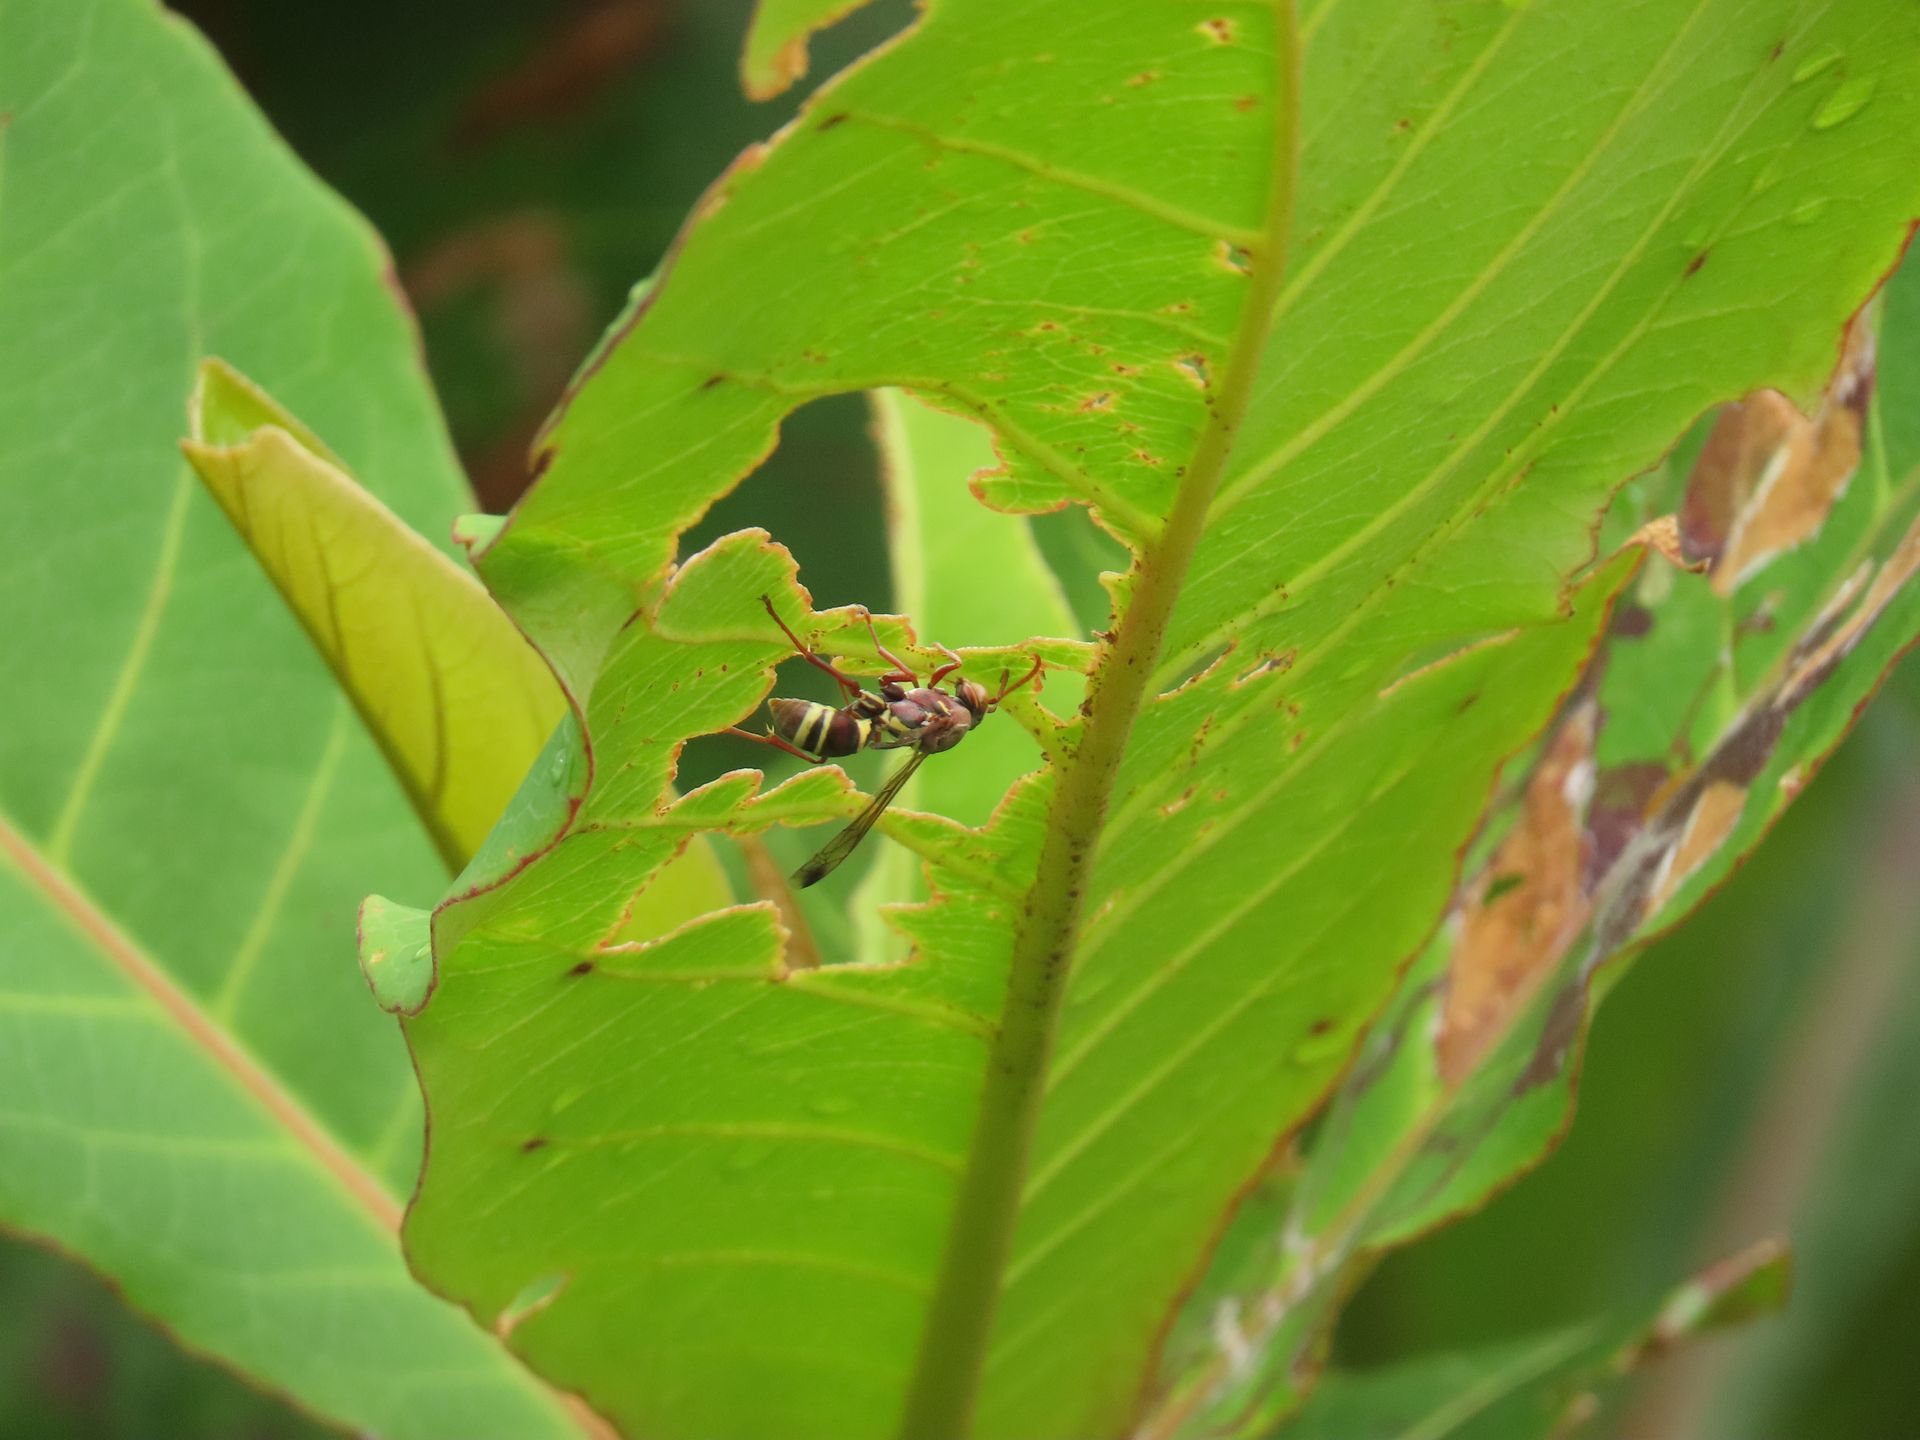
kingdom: Animalia
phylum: Arthropoda
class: Insecta
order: Hymenoptera
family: Eumenidae
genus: Polistes
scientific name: Polistes stigma
